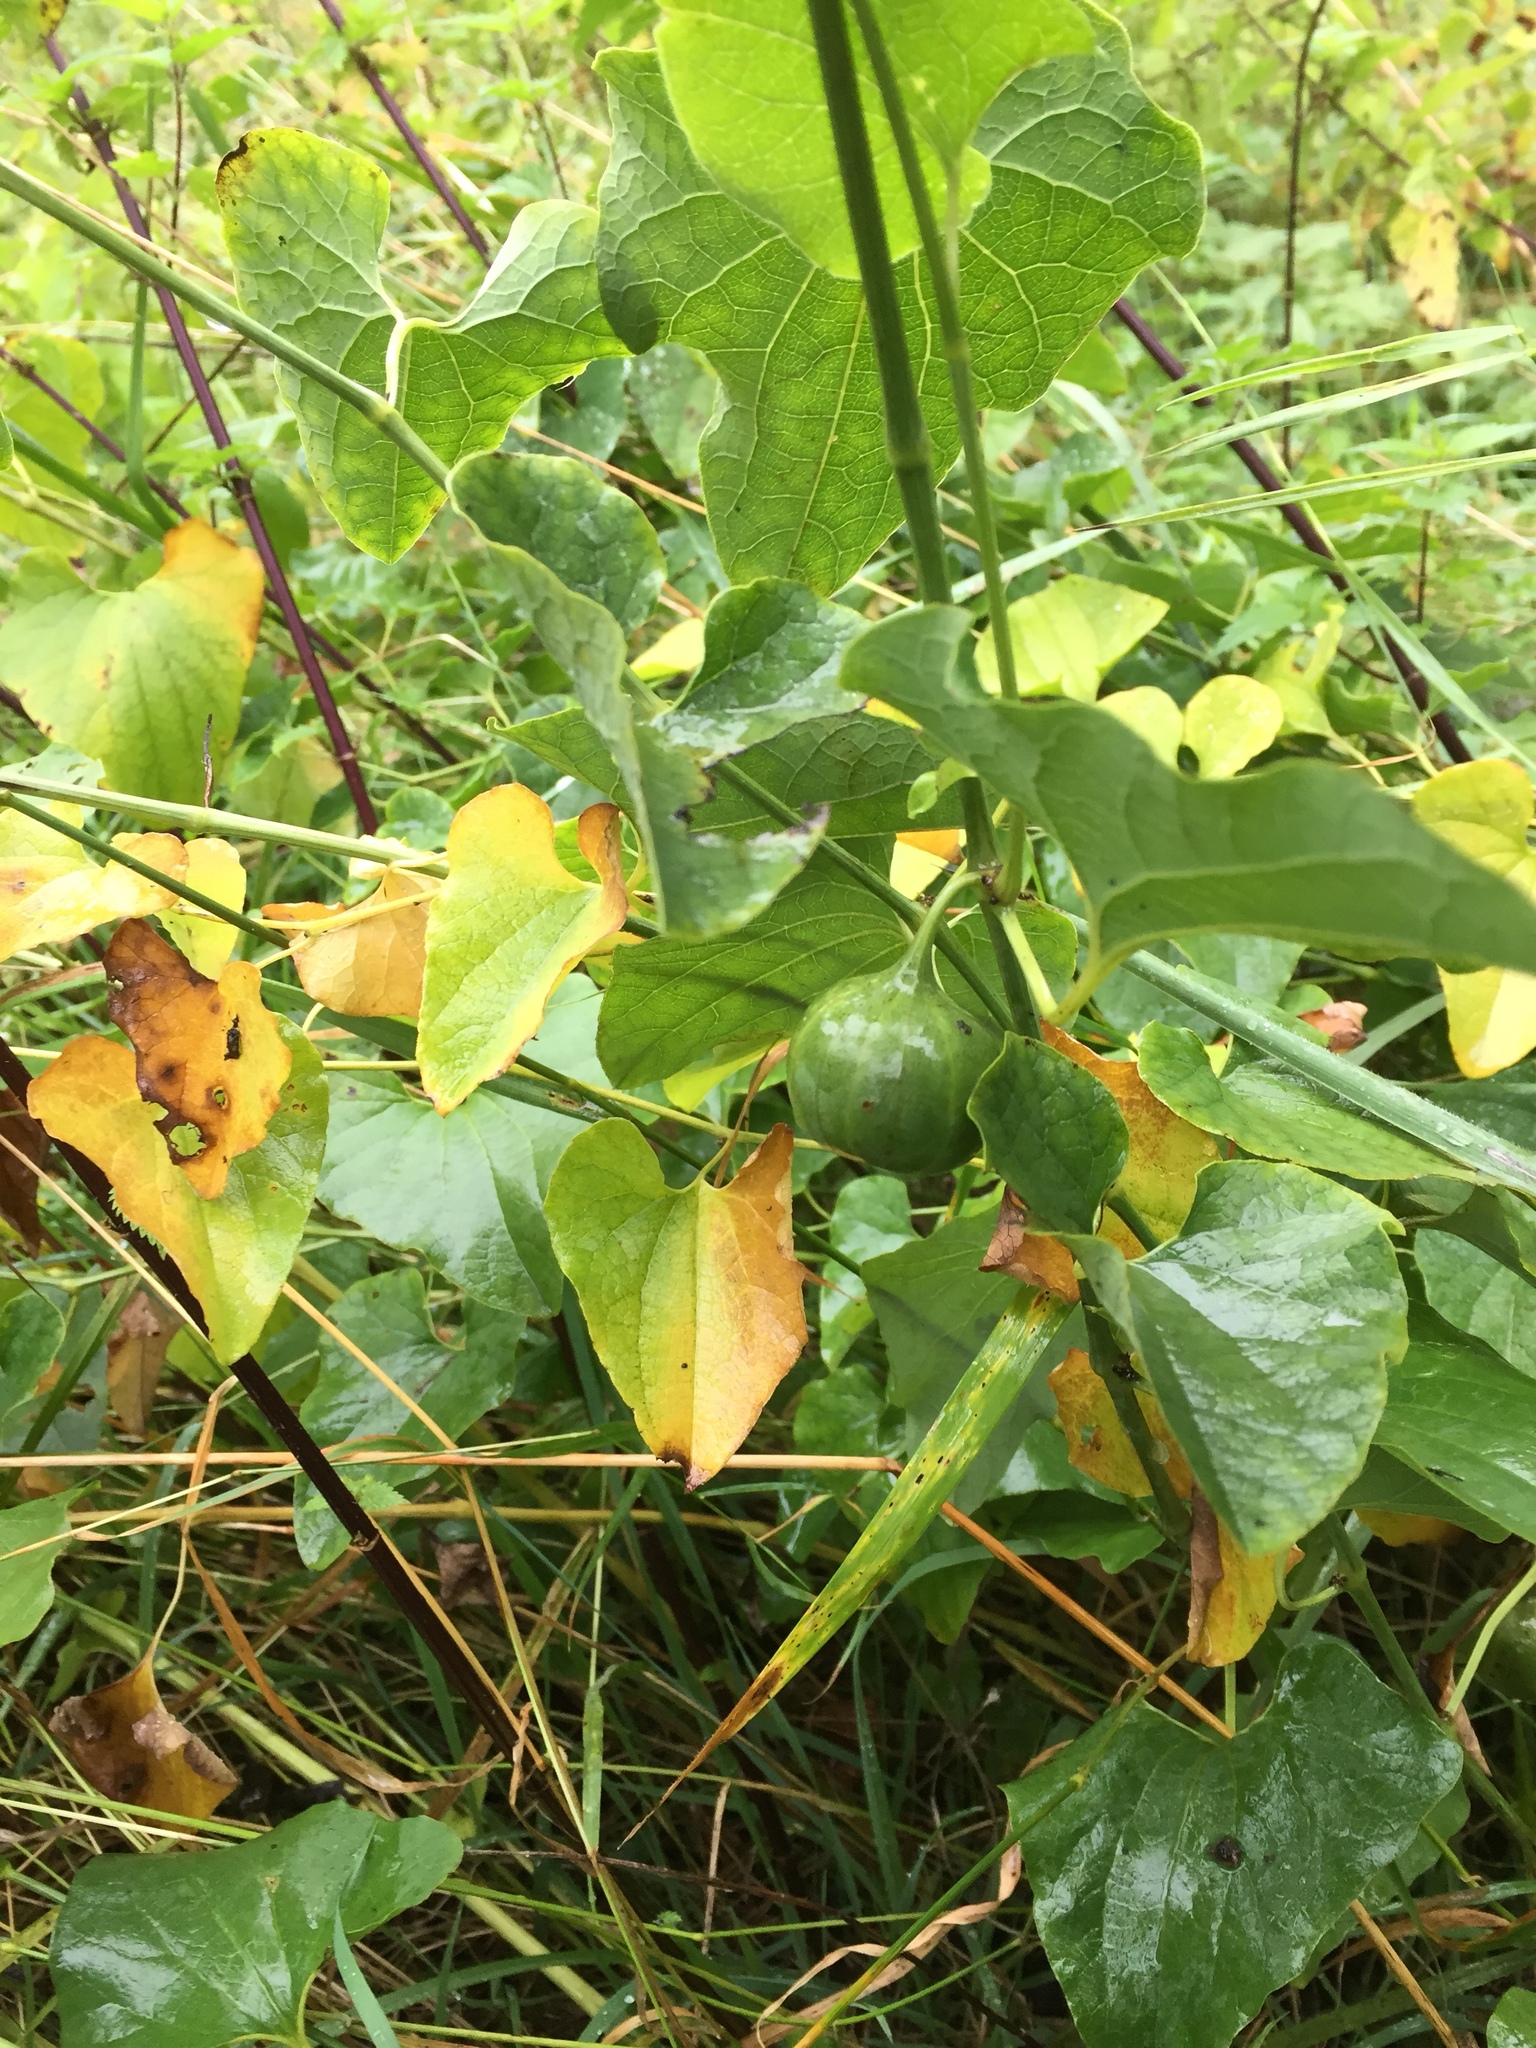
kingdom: Plantae
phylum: Tracheophyta
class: Magnoliopsida
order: Piperales
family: Aristolochiaceae
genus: Aristolochia
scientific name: Aristolochia clematitis
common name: Birthwort
